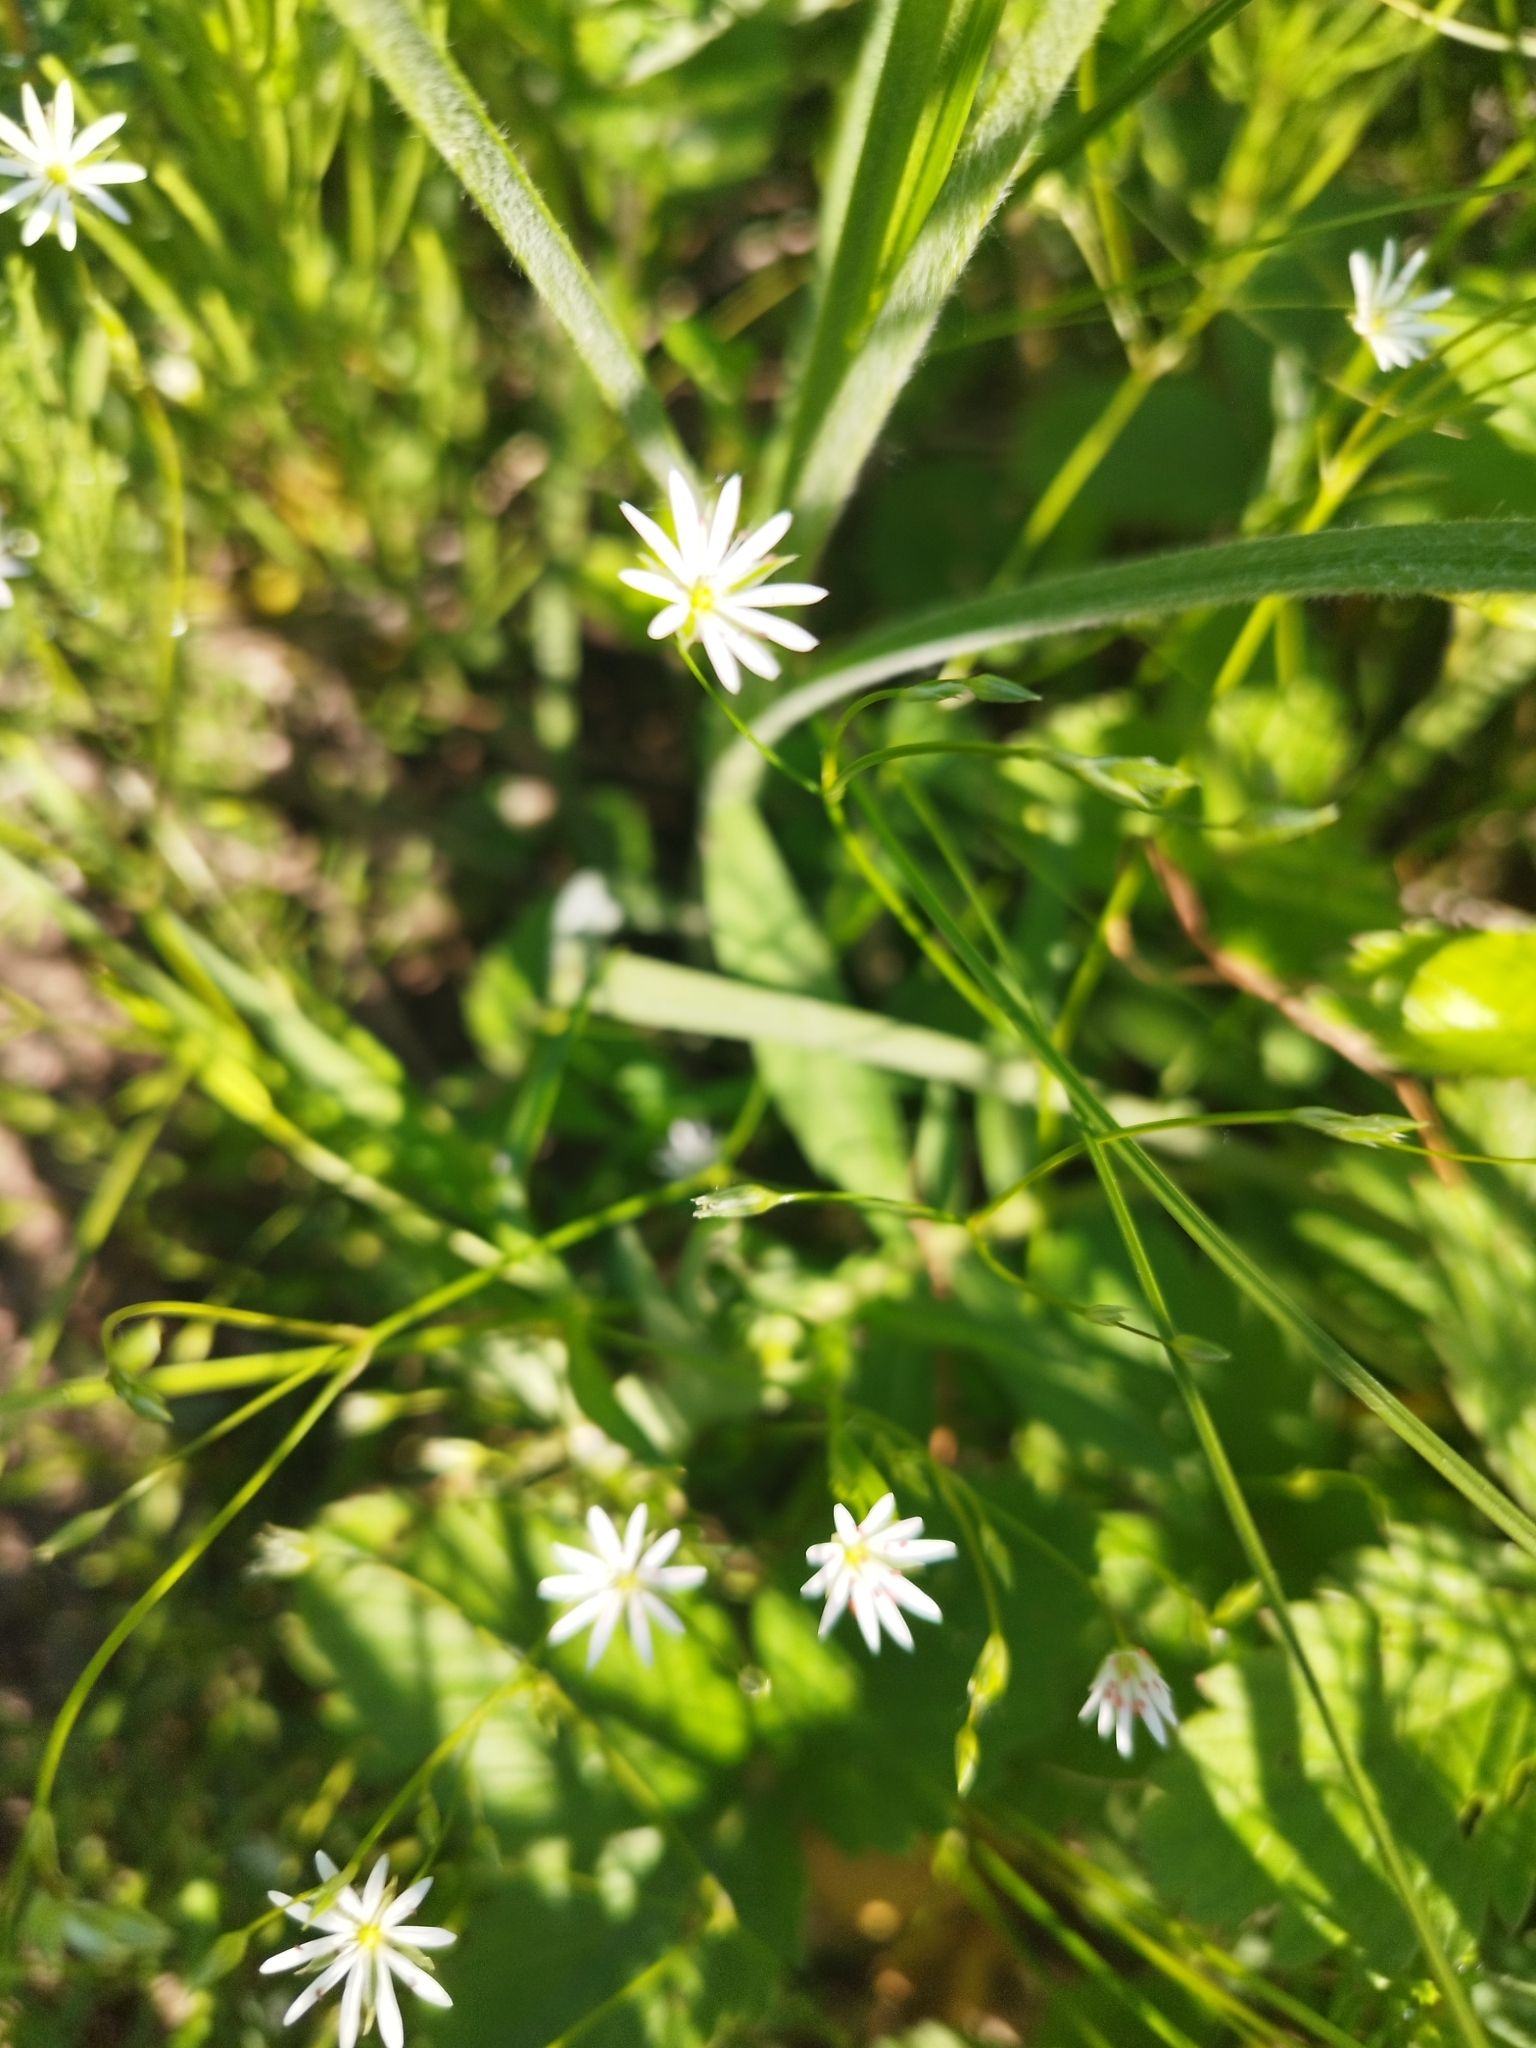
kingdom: Plantae
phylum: Tracheophyta
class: Magnoliopsida
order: Caryophyllales
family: Caryophyllaceae
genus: Stellaria
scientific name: Stellaria graminea
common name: Grass-like starwort
